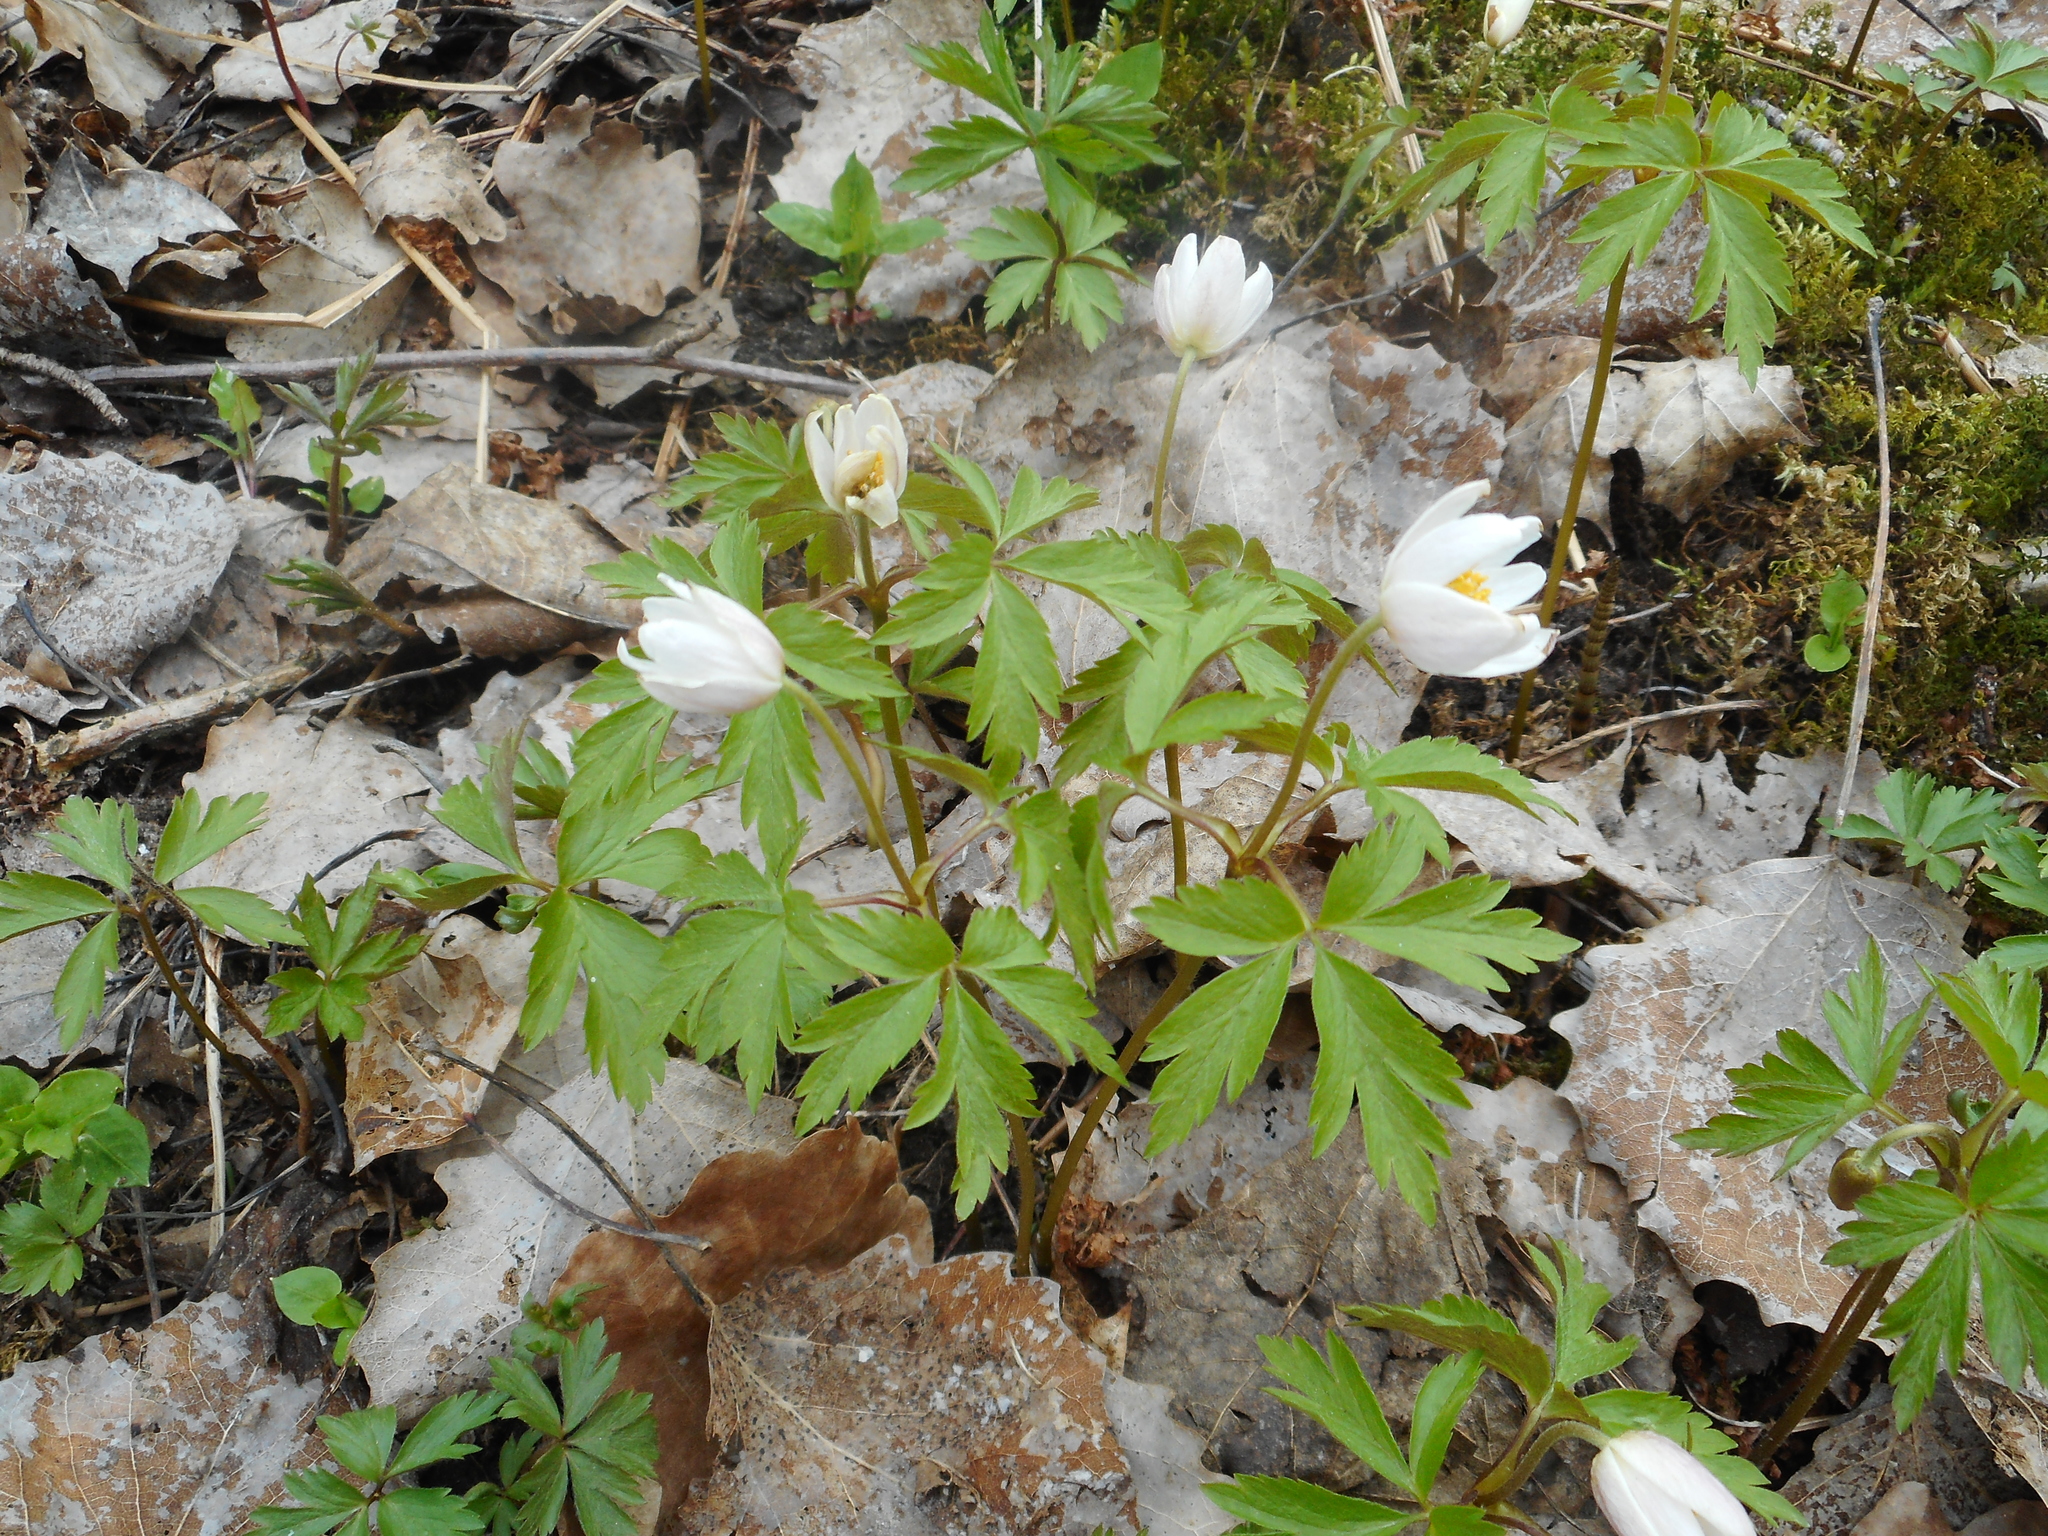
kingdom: Plantae
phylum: Tracheophyta
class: Magnoliopsida
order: Ranunculales
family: Ranunculaceae
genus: Anemone
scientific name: Anemone nemorosa
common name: Wood anemone
